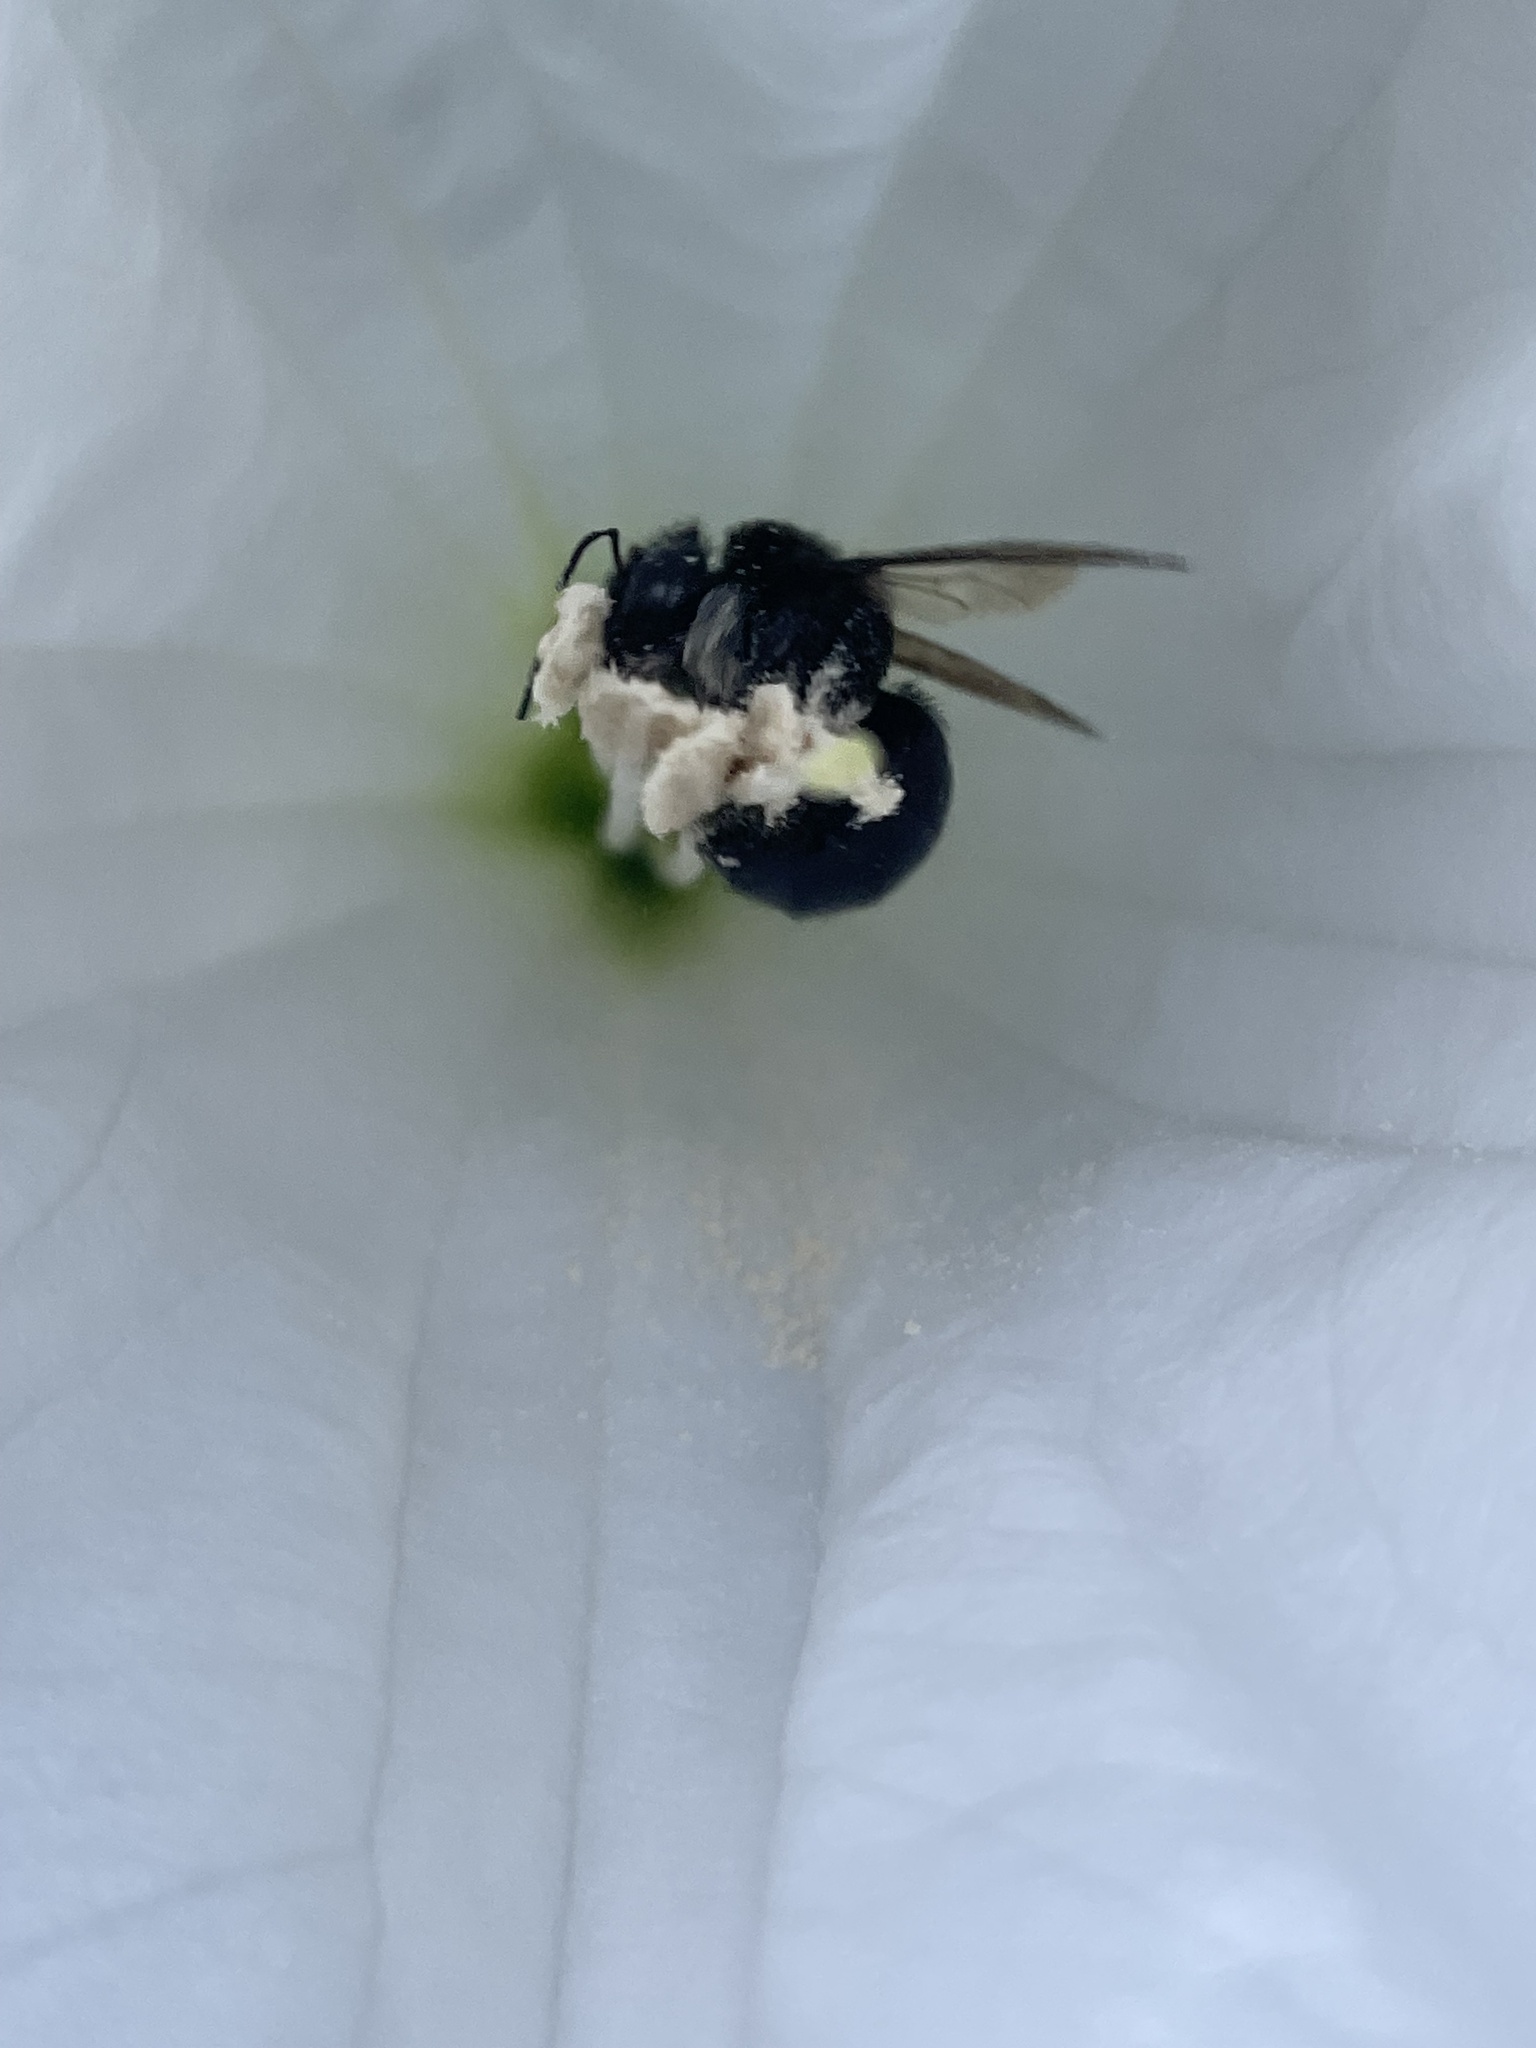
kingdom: Animalia
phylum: Arthropoda
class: Insecta
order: Hymenoptera
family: Apidae
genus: Xylocopa
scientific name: Xylocopa tabaniformis
